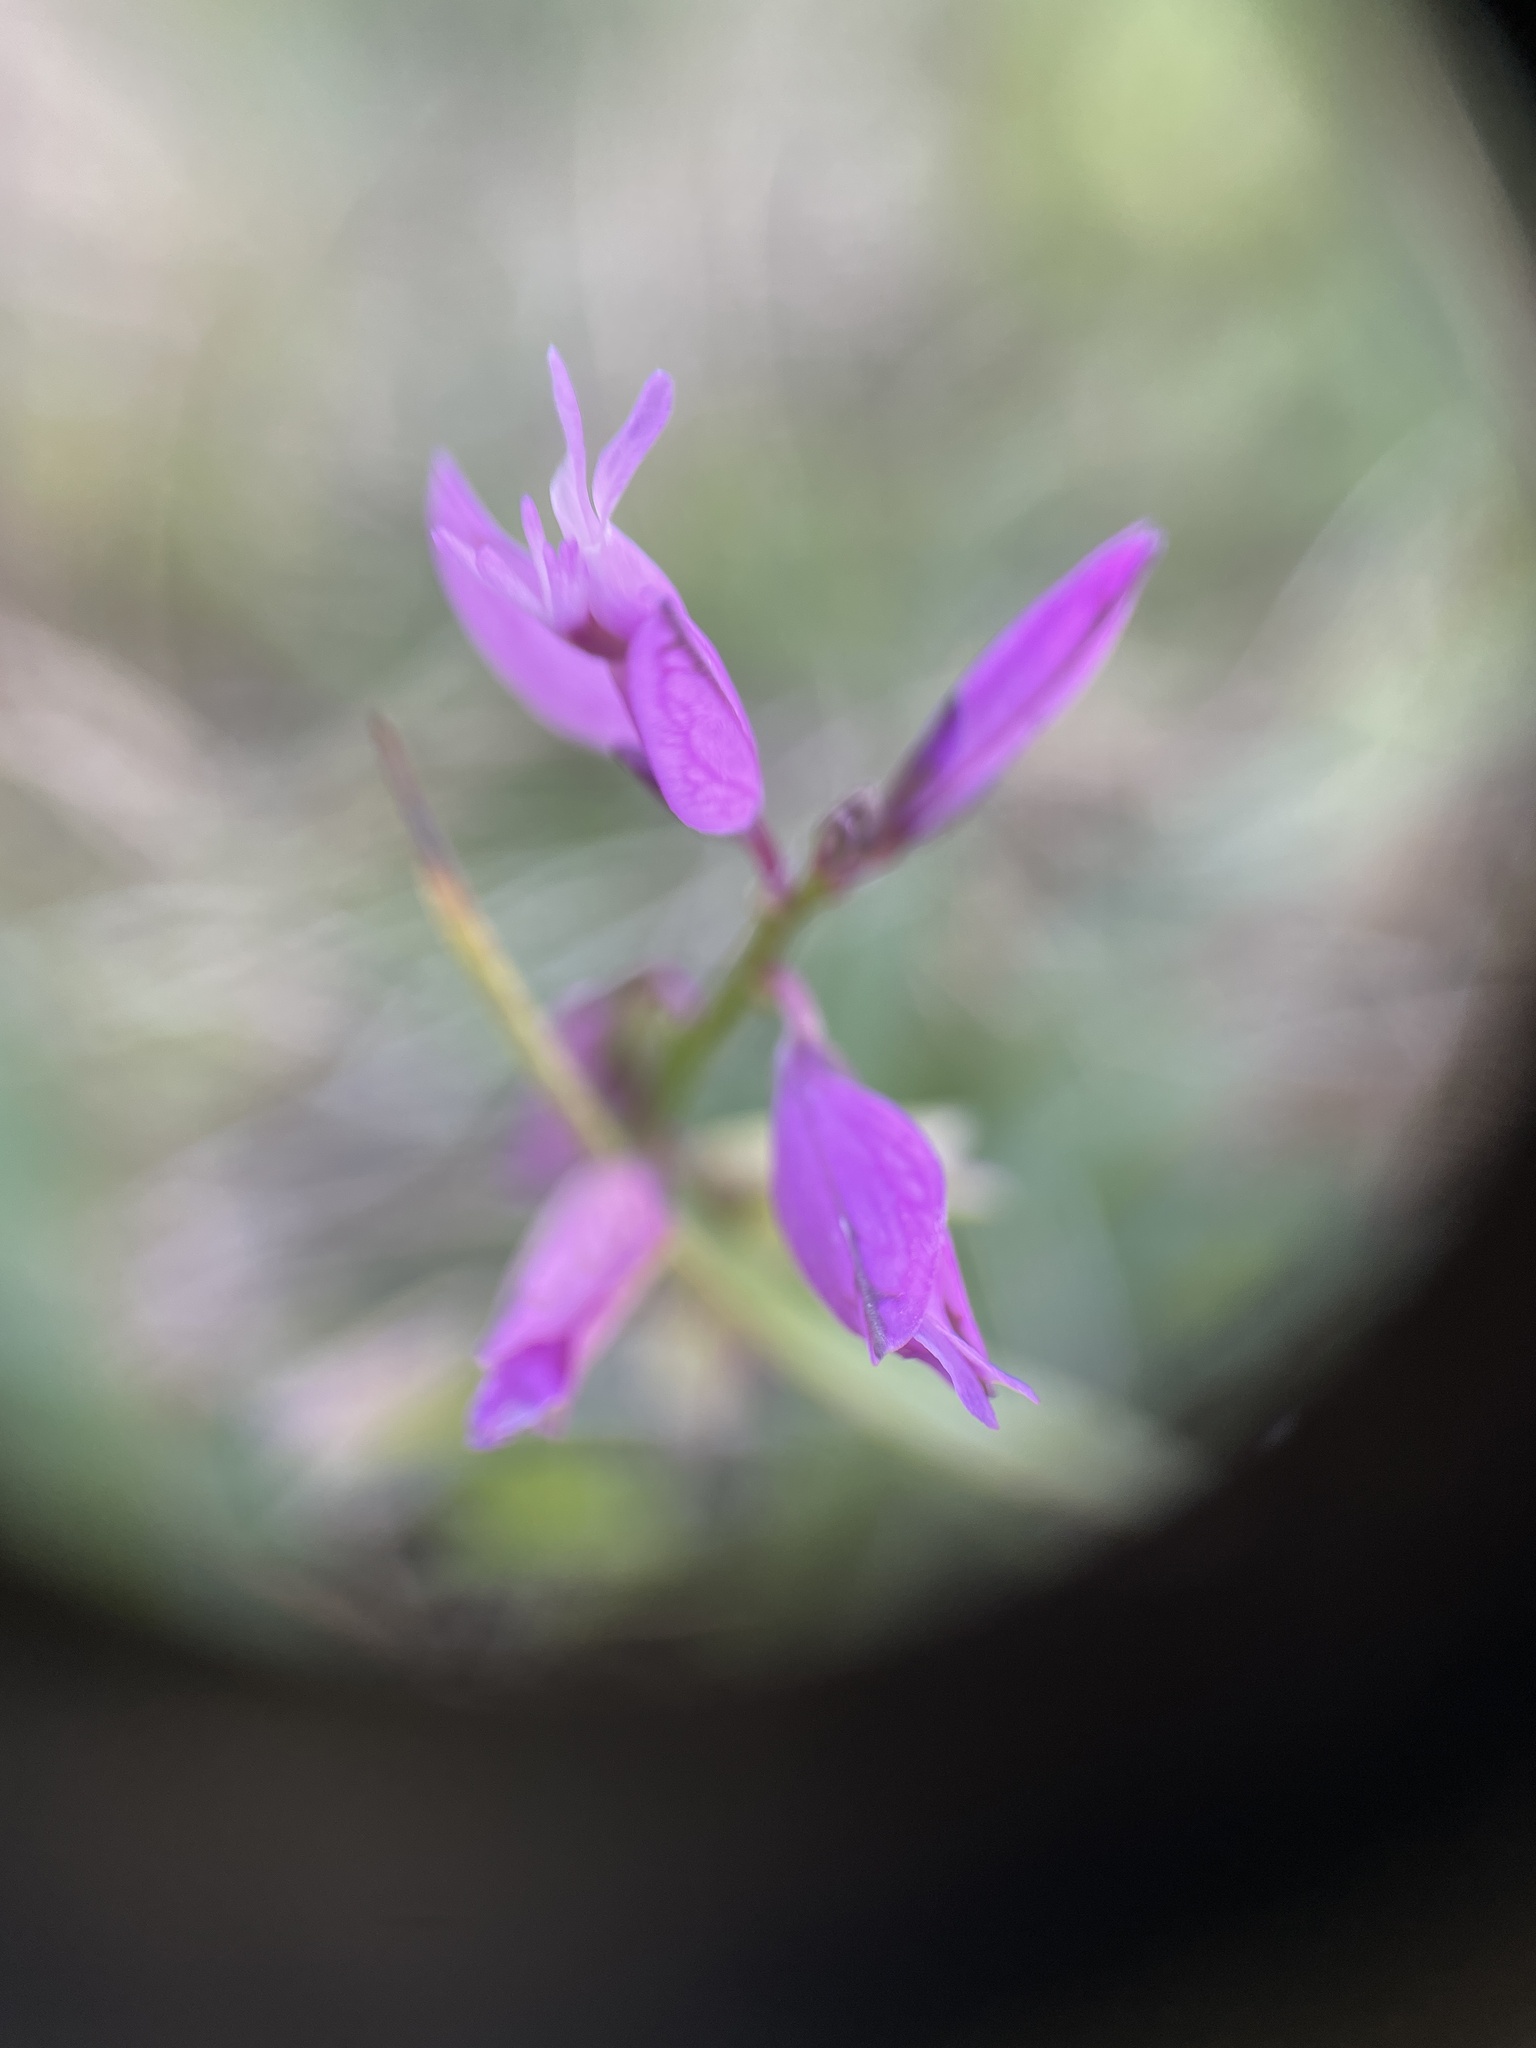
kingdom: Plantae
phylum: Tracheophyta
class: Magnoliopsida
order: Fabales
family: Polygalaceae
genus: Polygala
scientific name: Polygala vulgaris
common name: Common milkwort
